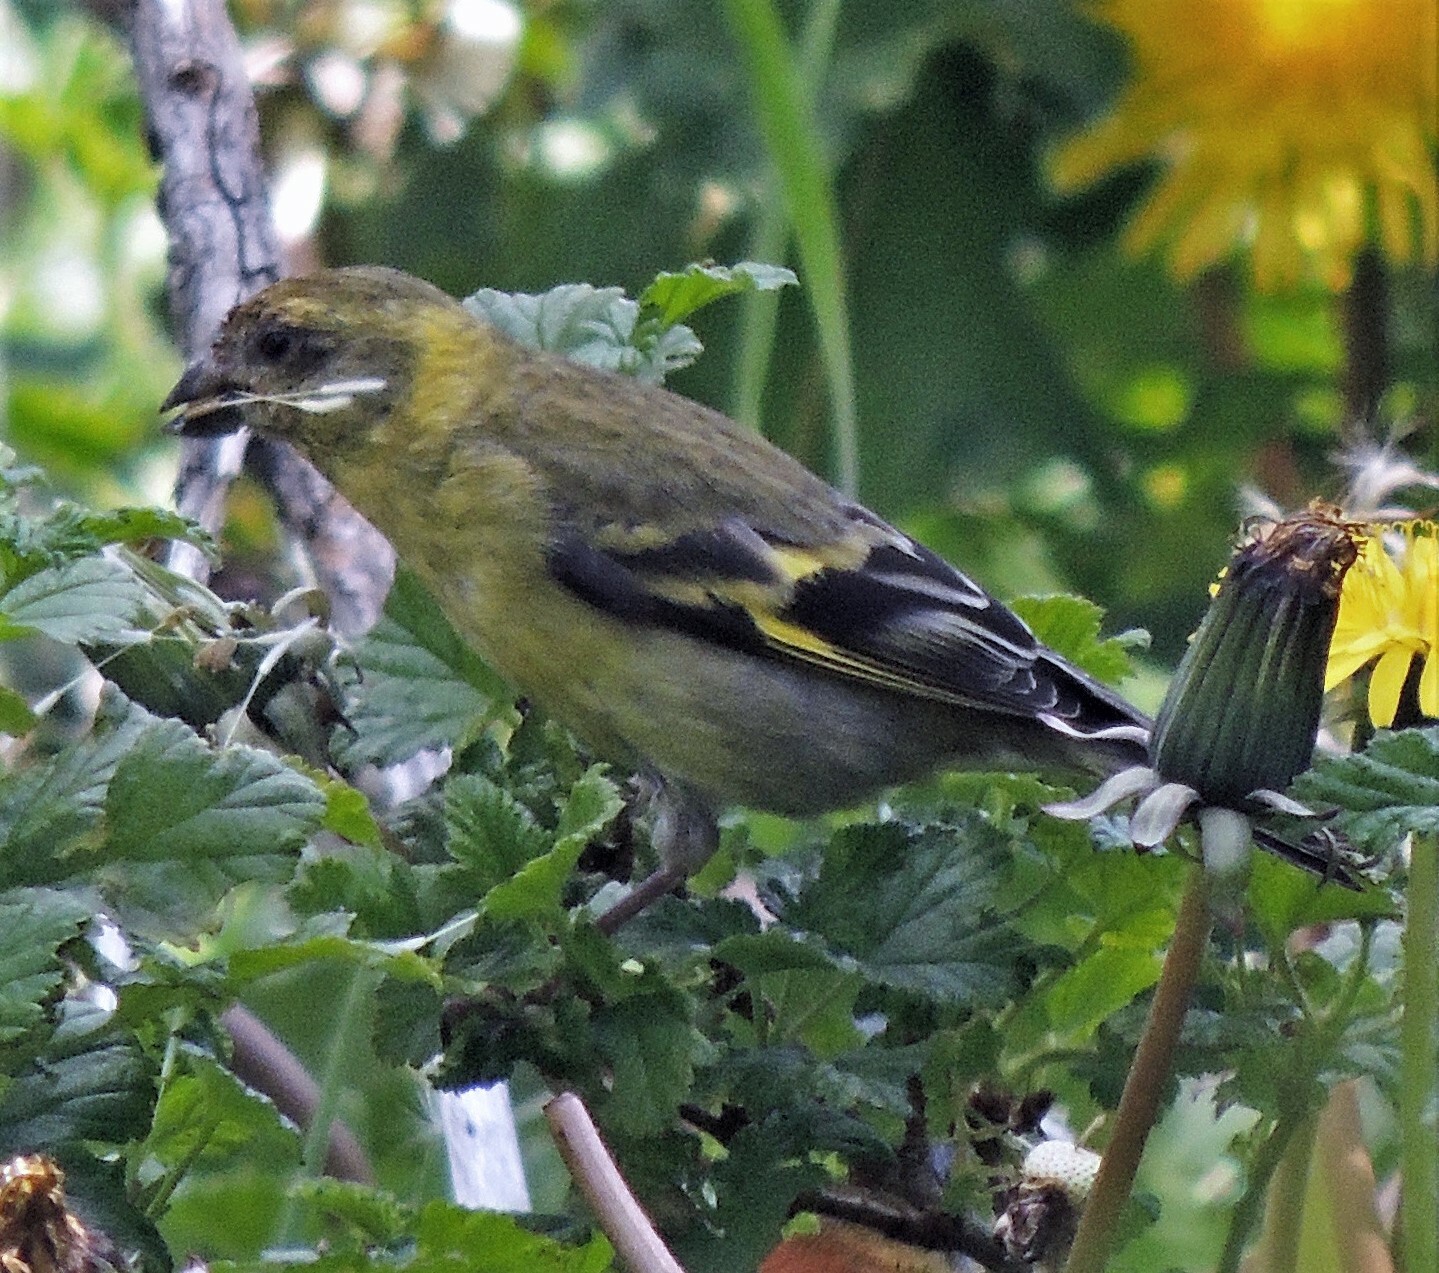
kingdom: Animalia
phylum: Chordata
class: Aves
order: Passeriformes
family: Fringillidae
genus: Spinus
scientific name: Spinus barbatus
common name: Black-chinned siskin
